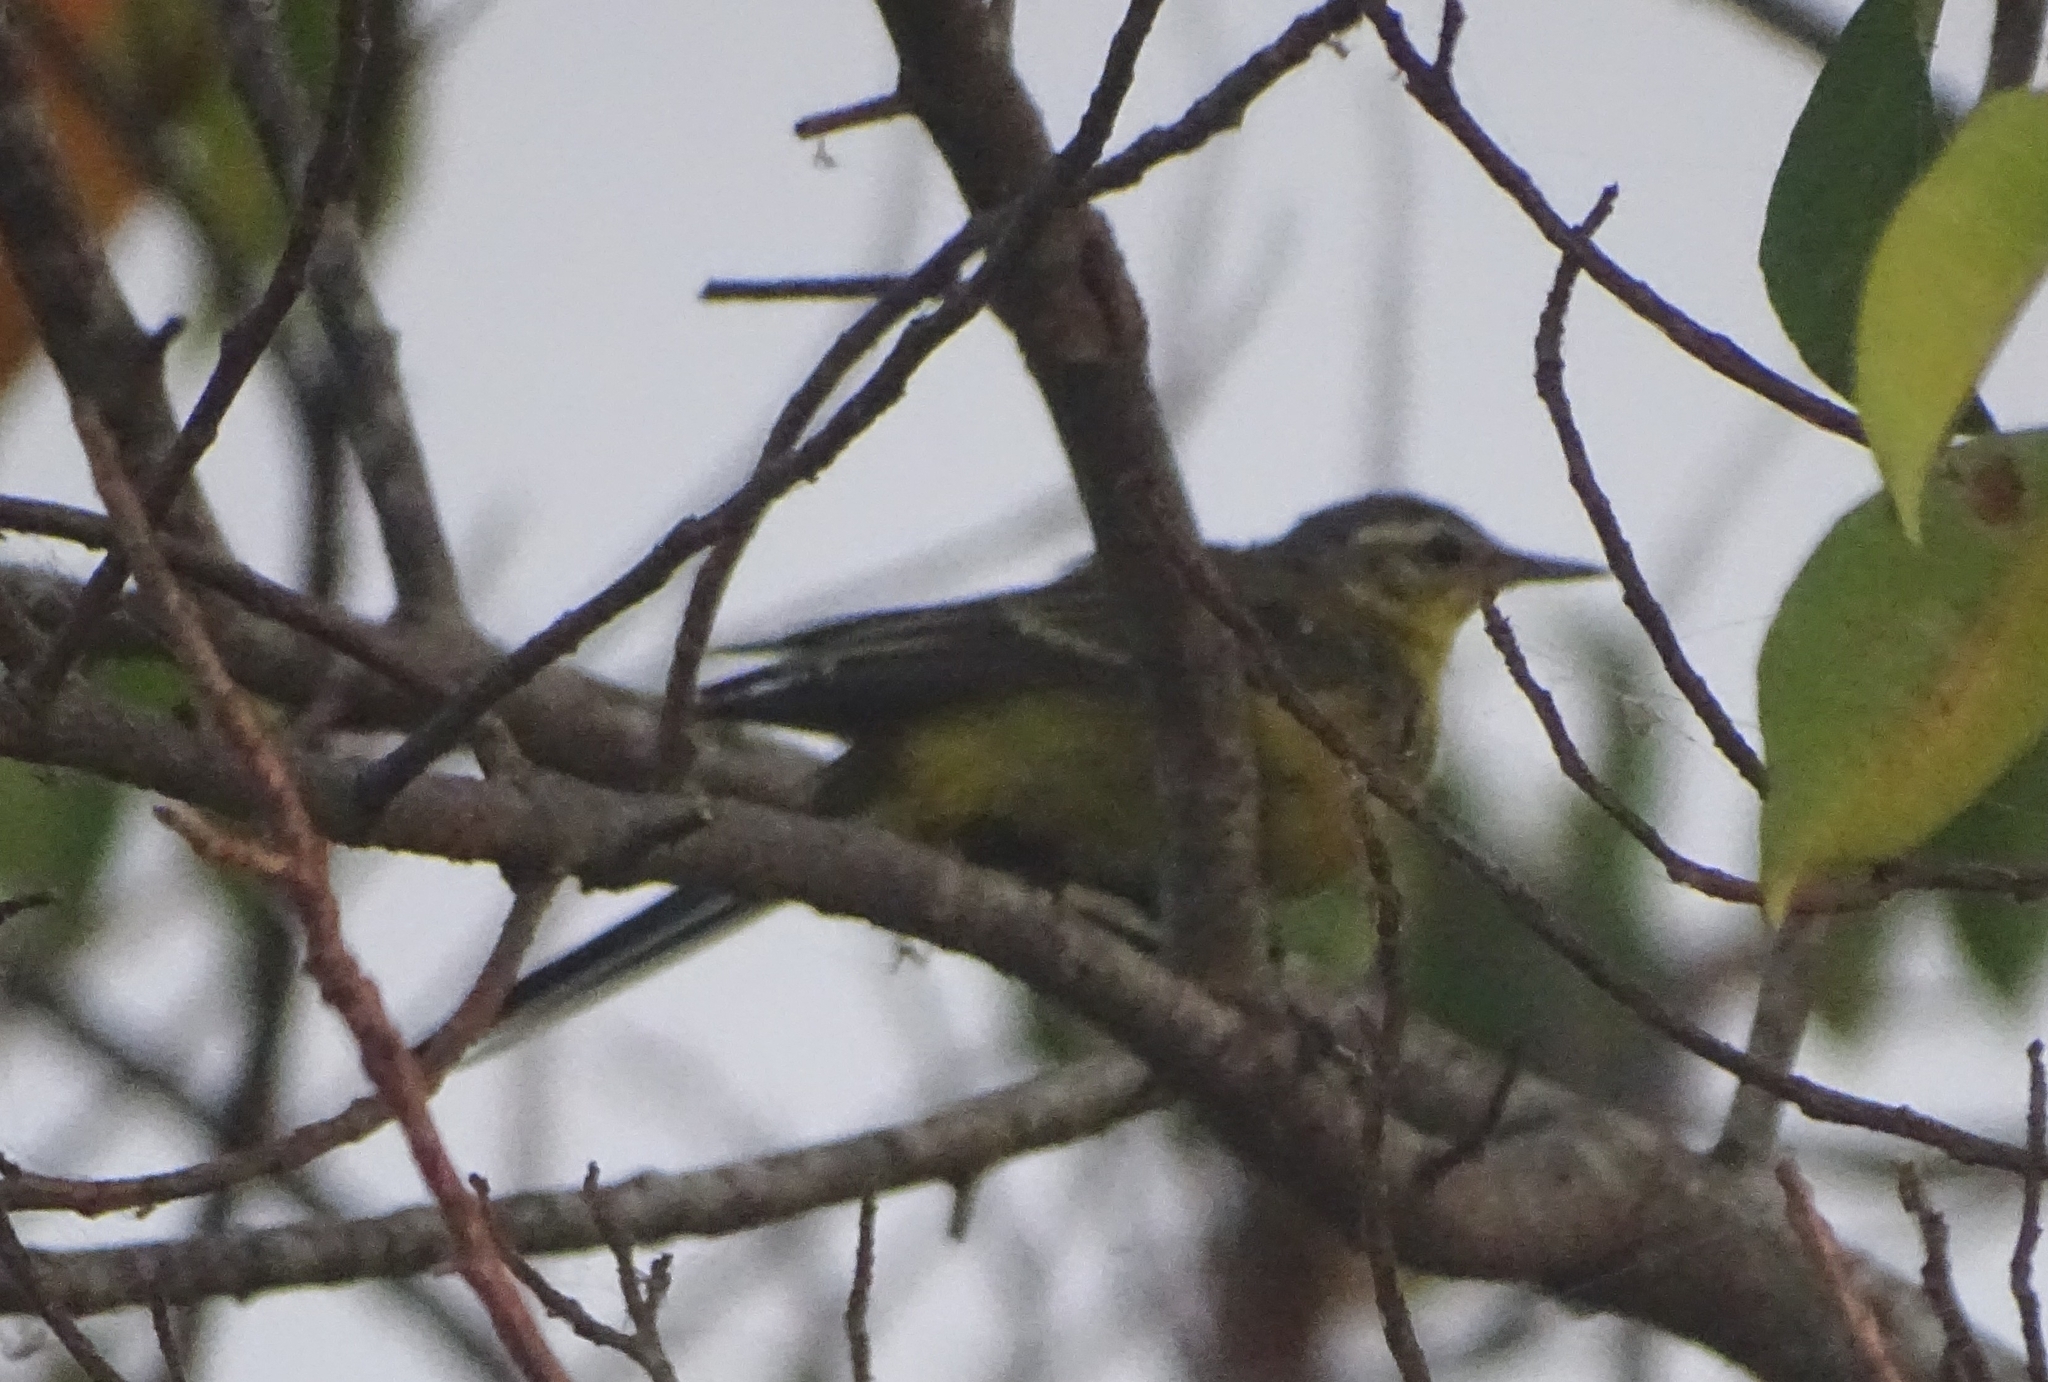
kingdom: Animalia
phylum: Chordata
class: Aves
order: Passeriformes
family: Motacillidae
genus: Motacilla
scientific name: Motacilla flava
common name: Western yellow wagtail
